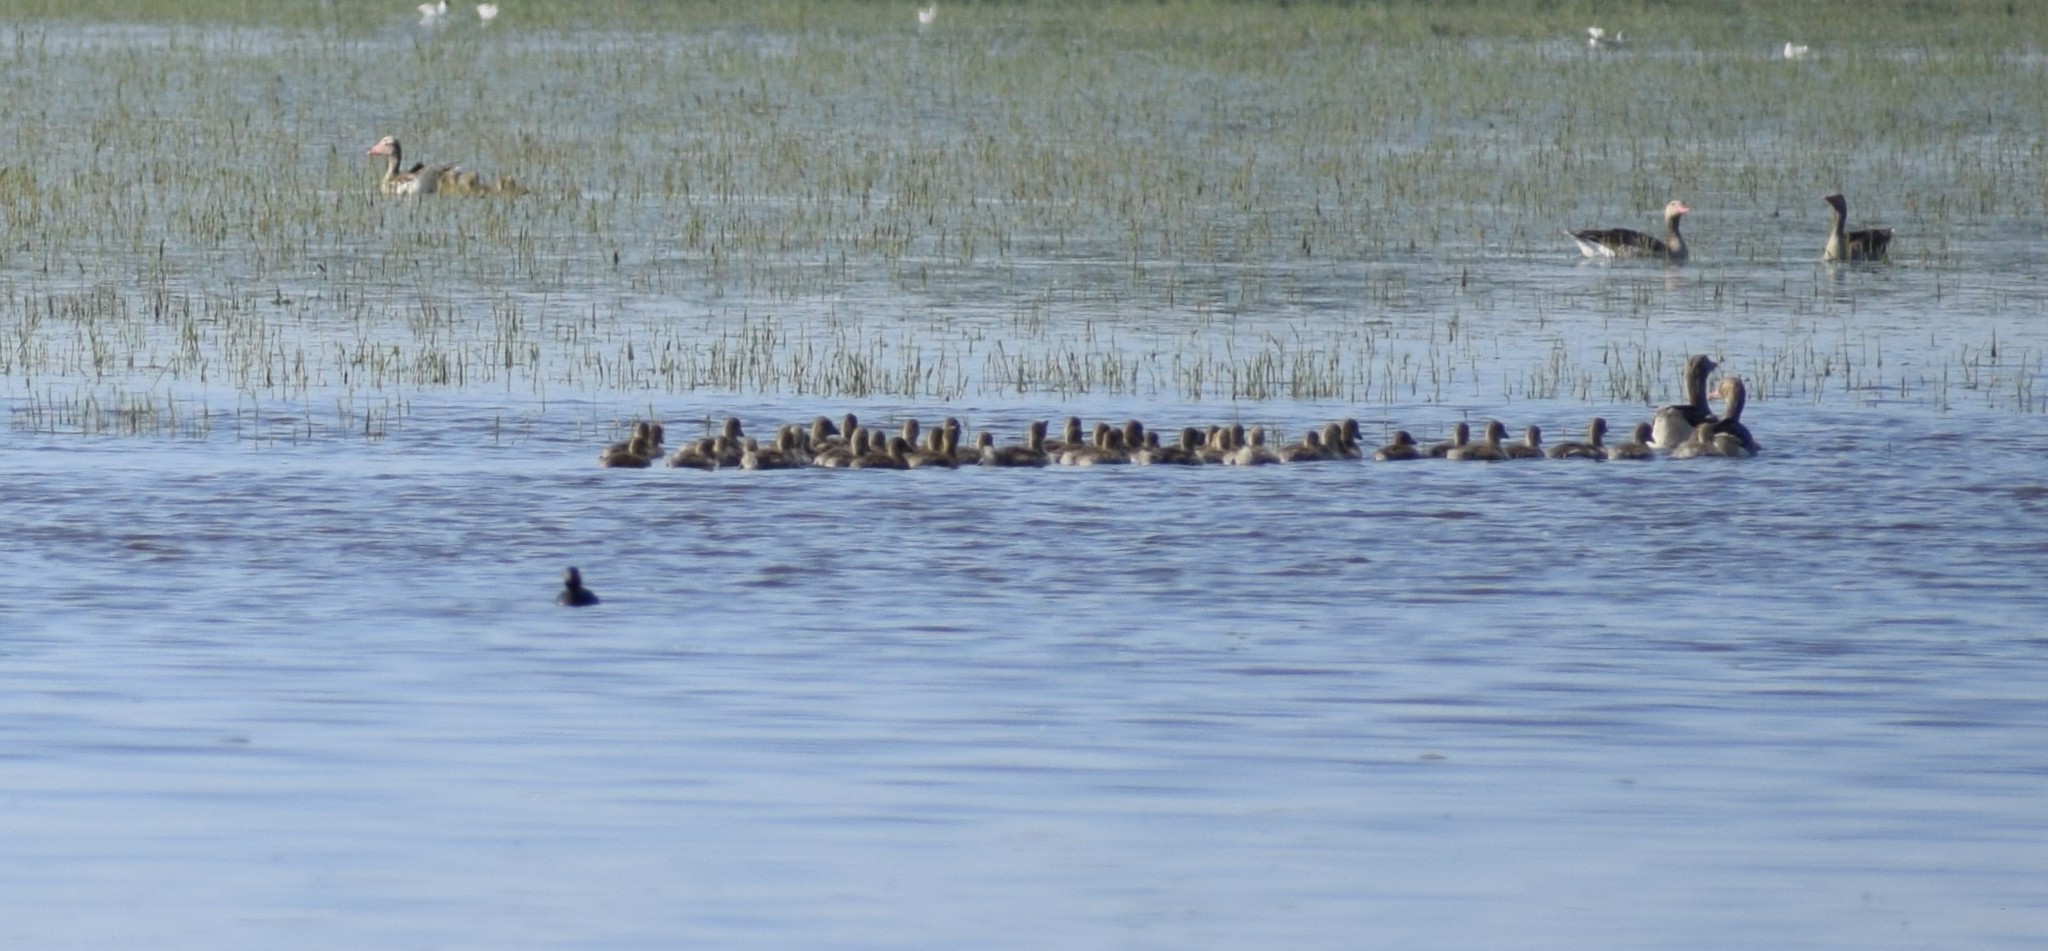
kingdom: Animalia
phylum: Chordata
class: Aves
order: Anseriformes
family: Anatidae
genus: Anser
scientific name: Anser anser
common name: Greylag goose
